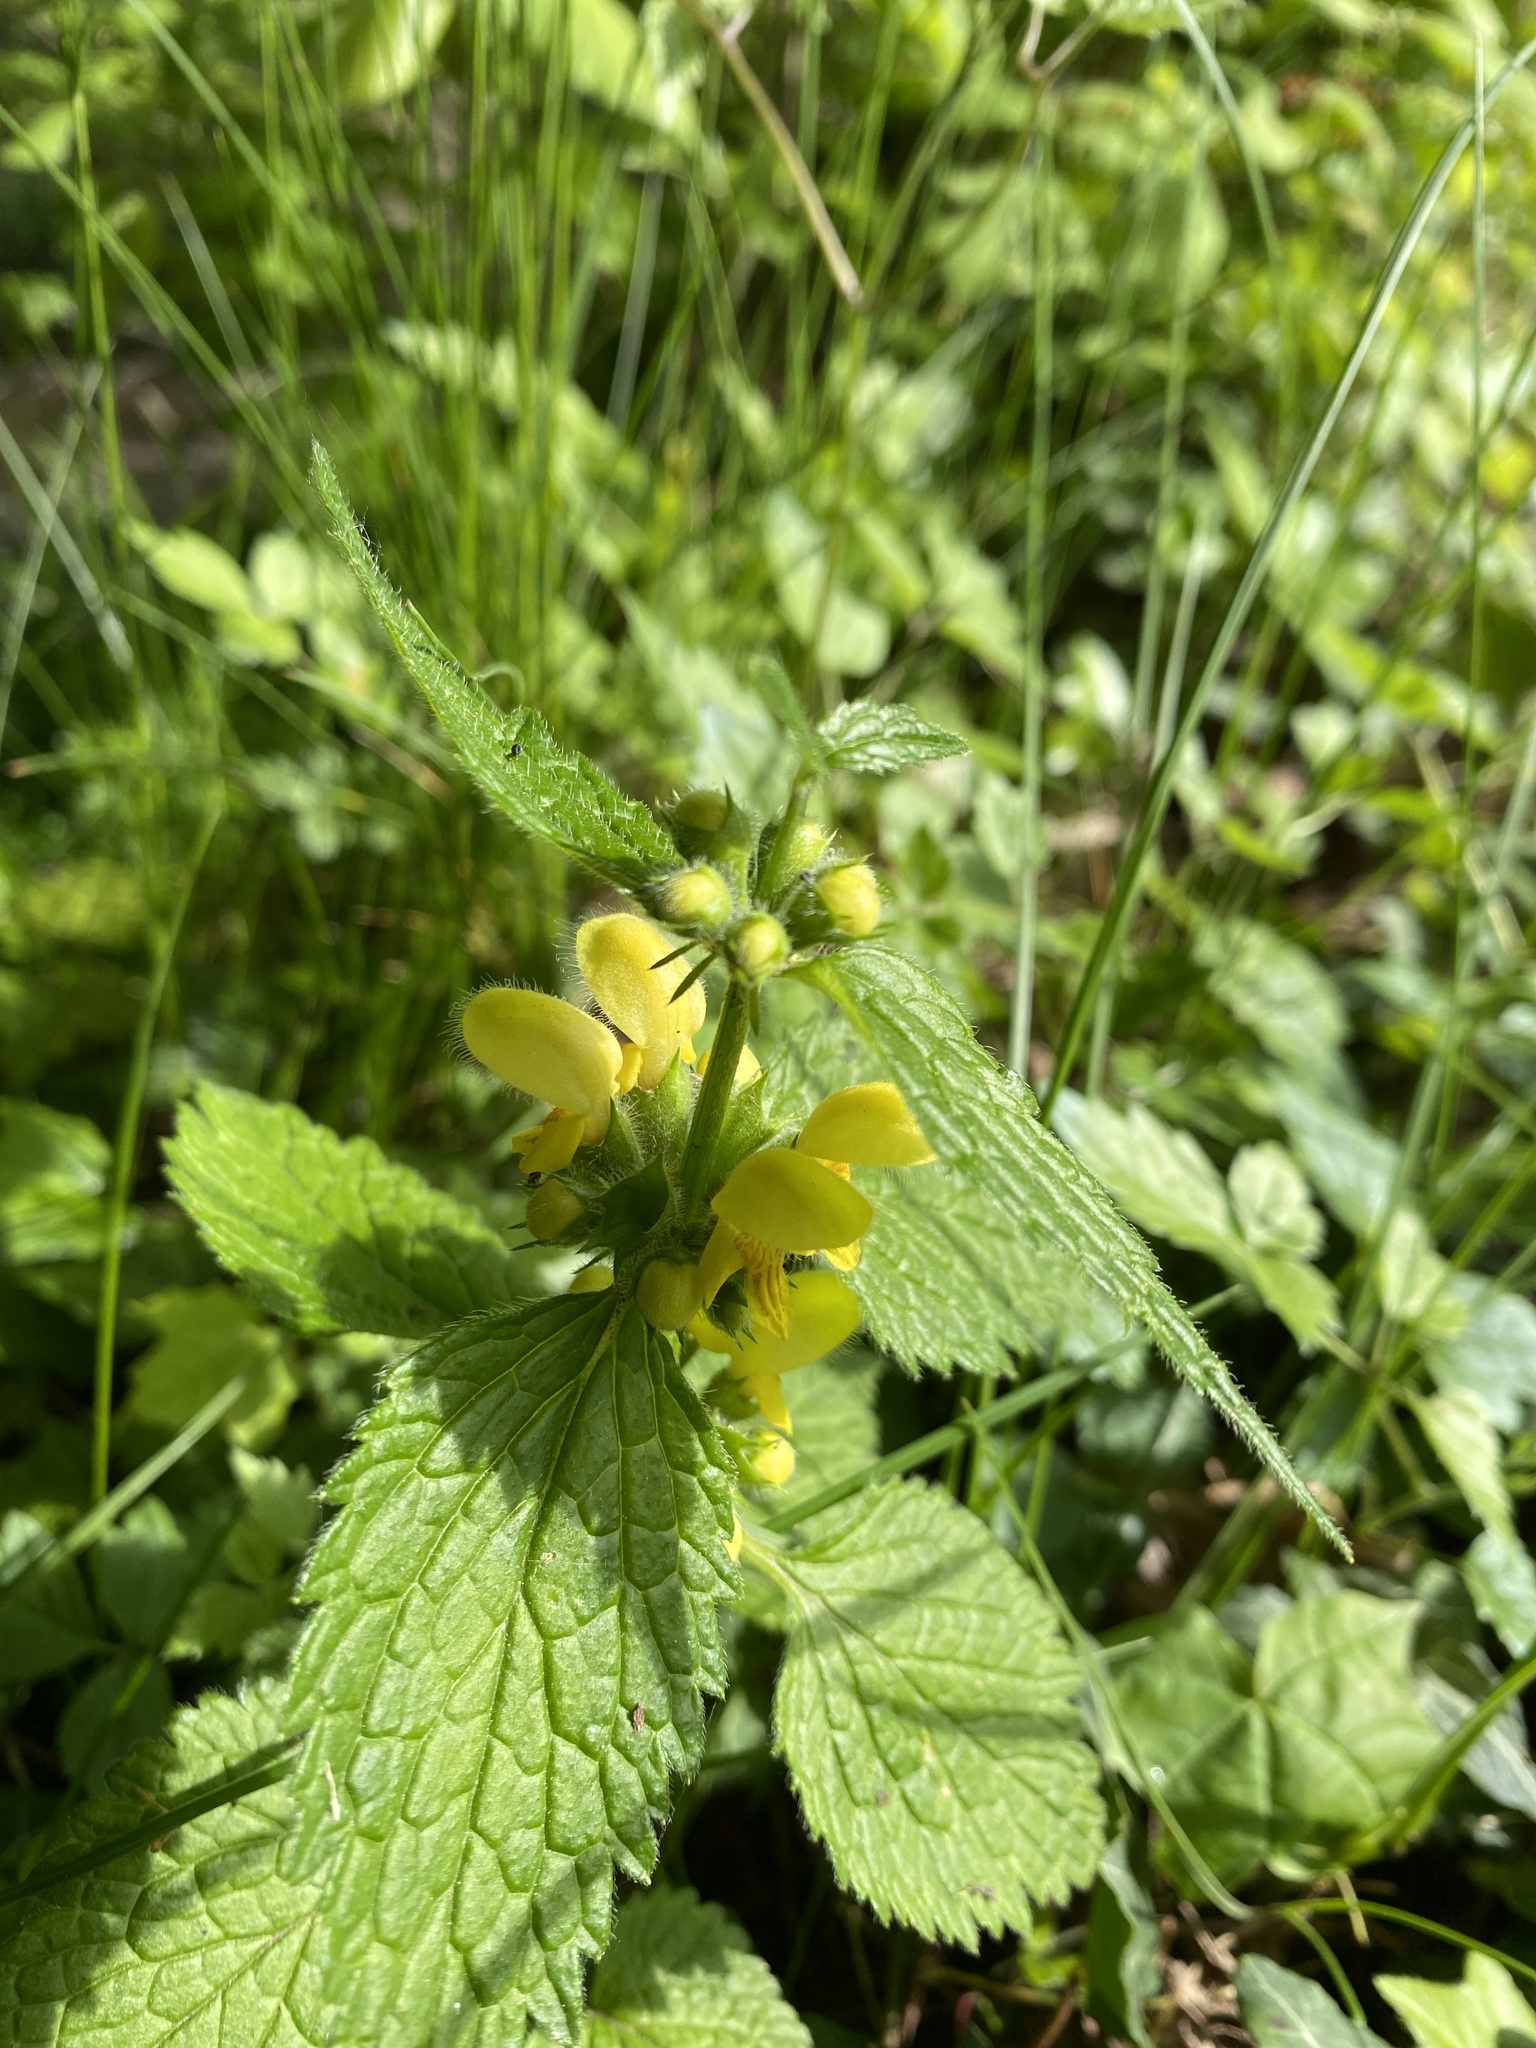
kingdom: Plantae
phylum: Tracheophyta
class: Magnoliopsida
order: Lamiales
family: Lamiaceae
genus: Lamium
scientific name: Lamium galeobdolon
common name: Yellow archangel
